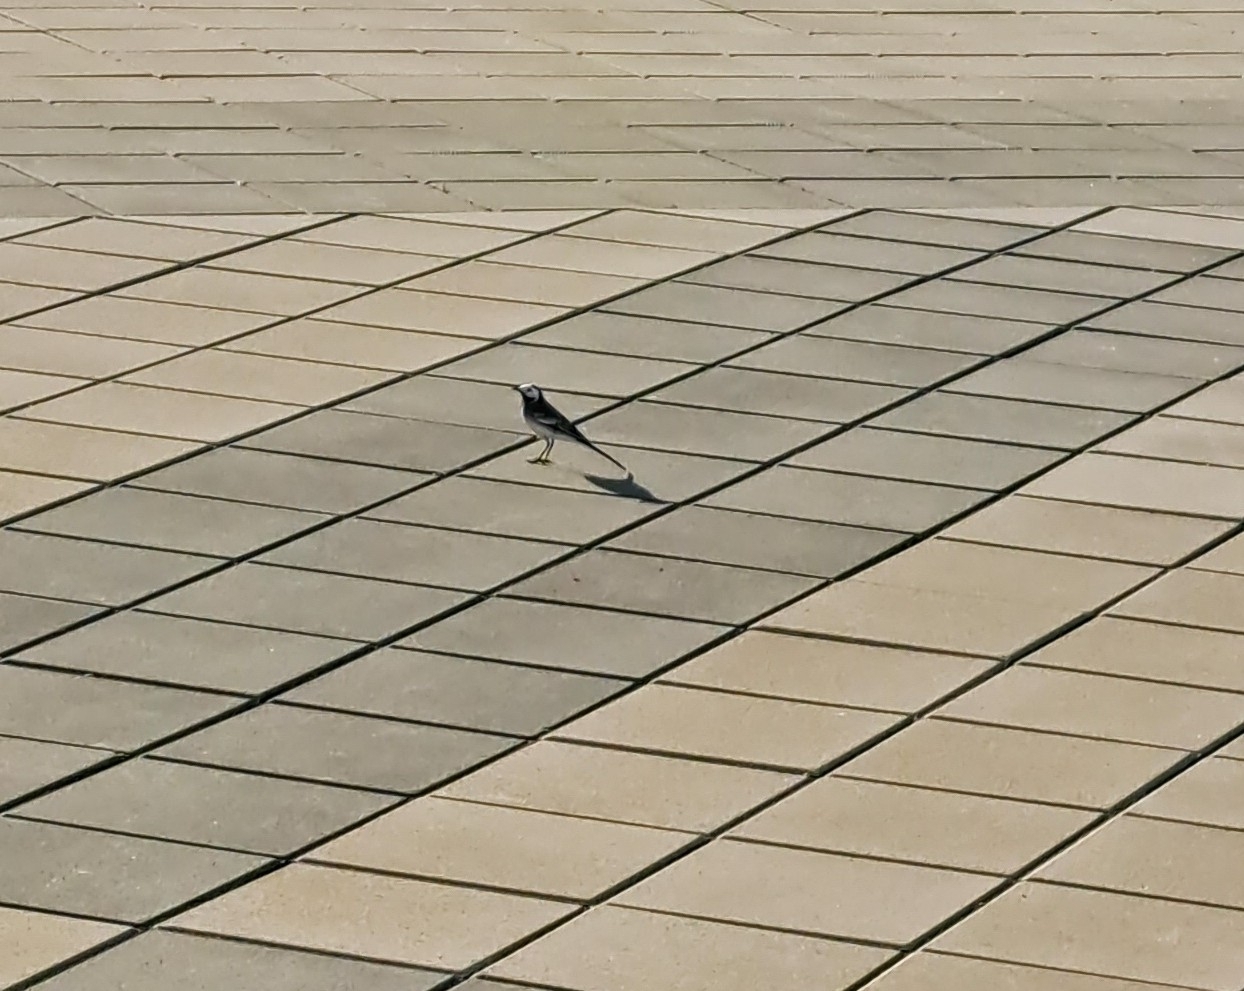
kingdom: Animalia
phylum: Chordata
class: Aves
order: Passeriformes
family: Motacillidae
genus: Motacilla
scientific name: Motacilla alba
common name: White wagtail
